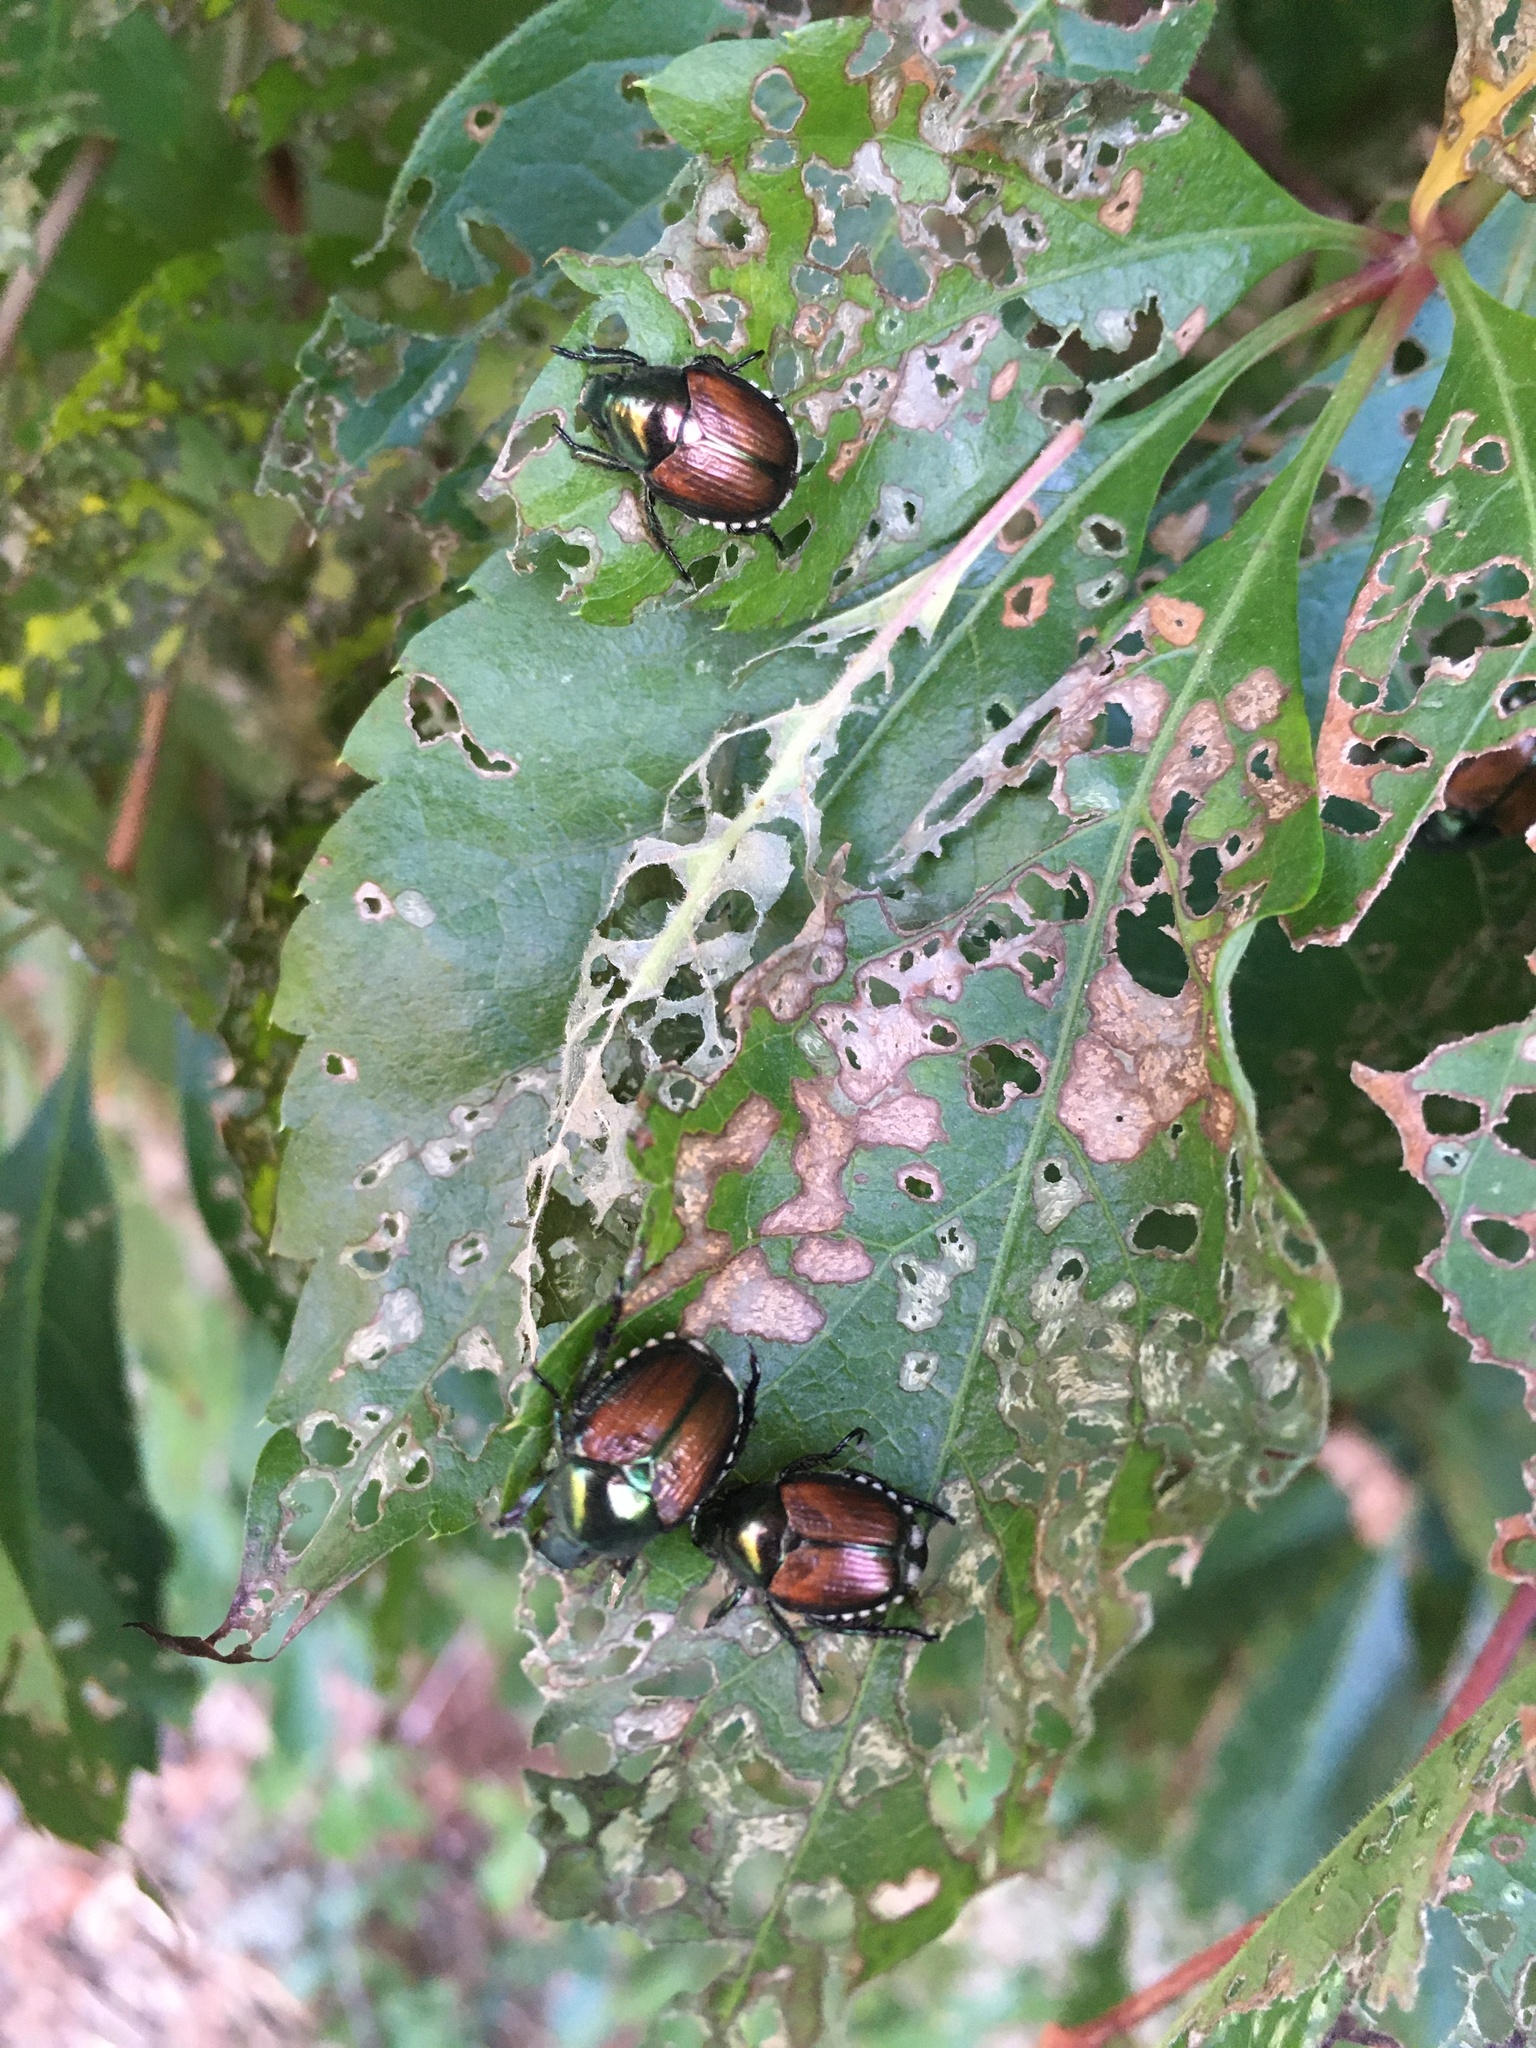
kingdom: Animalia
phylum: Arthropoda
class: Insecta
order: Coleoptera
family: Scarabaeidae
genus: Popillia
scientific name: Popillia japonica
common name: Japanese beetle
